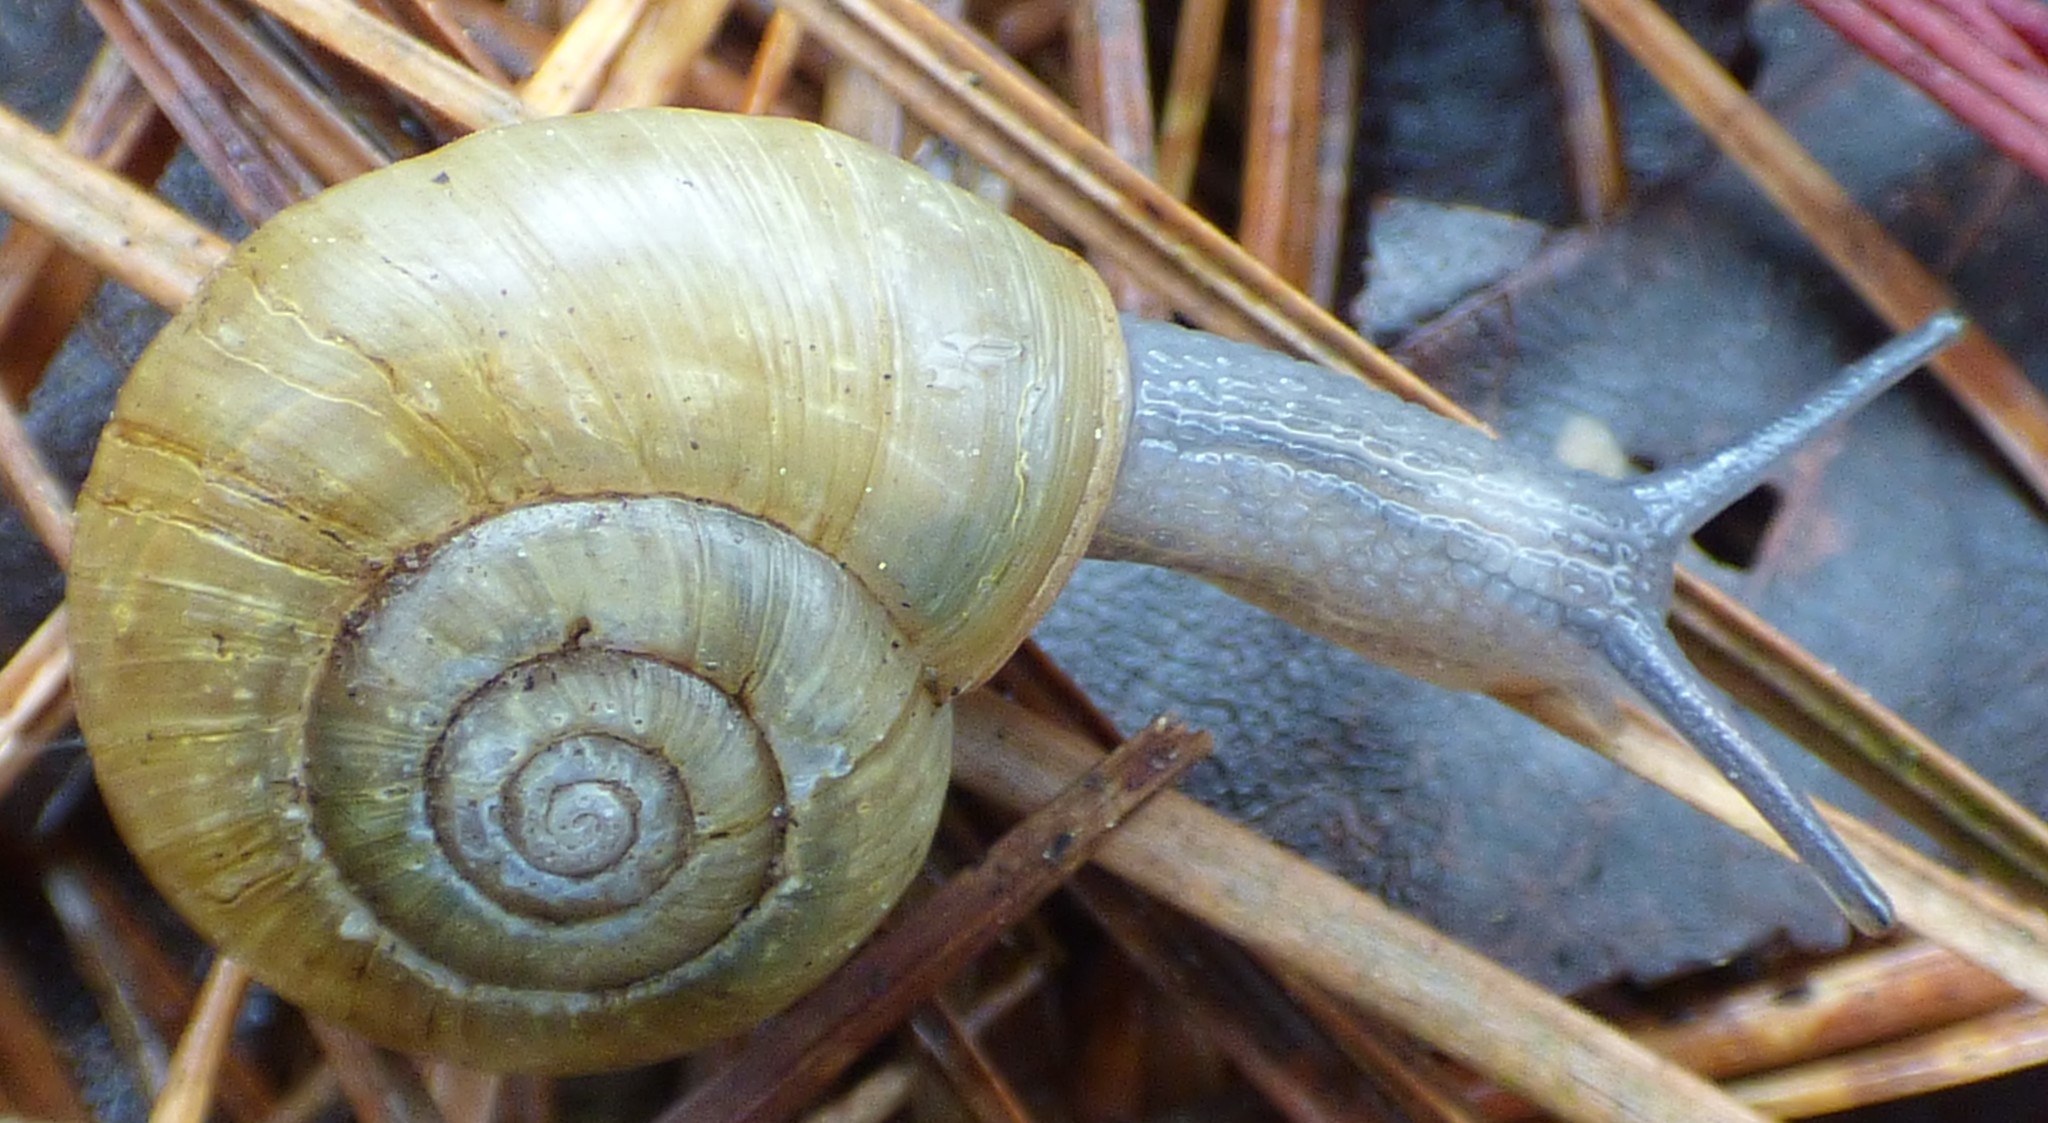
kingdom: Animalia
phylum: Mollusca
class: Gastropoda
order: Stylommatophora
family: Haplotrematidae
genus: Haplotrema
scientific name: Haplotrema concavum
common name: Gray-foot lancetooth
